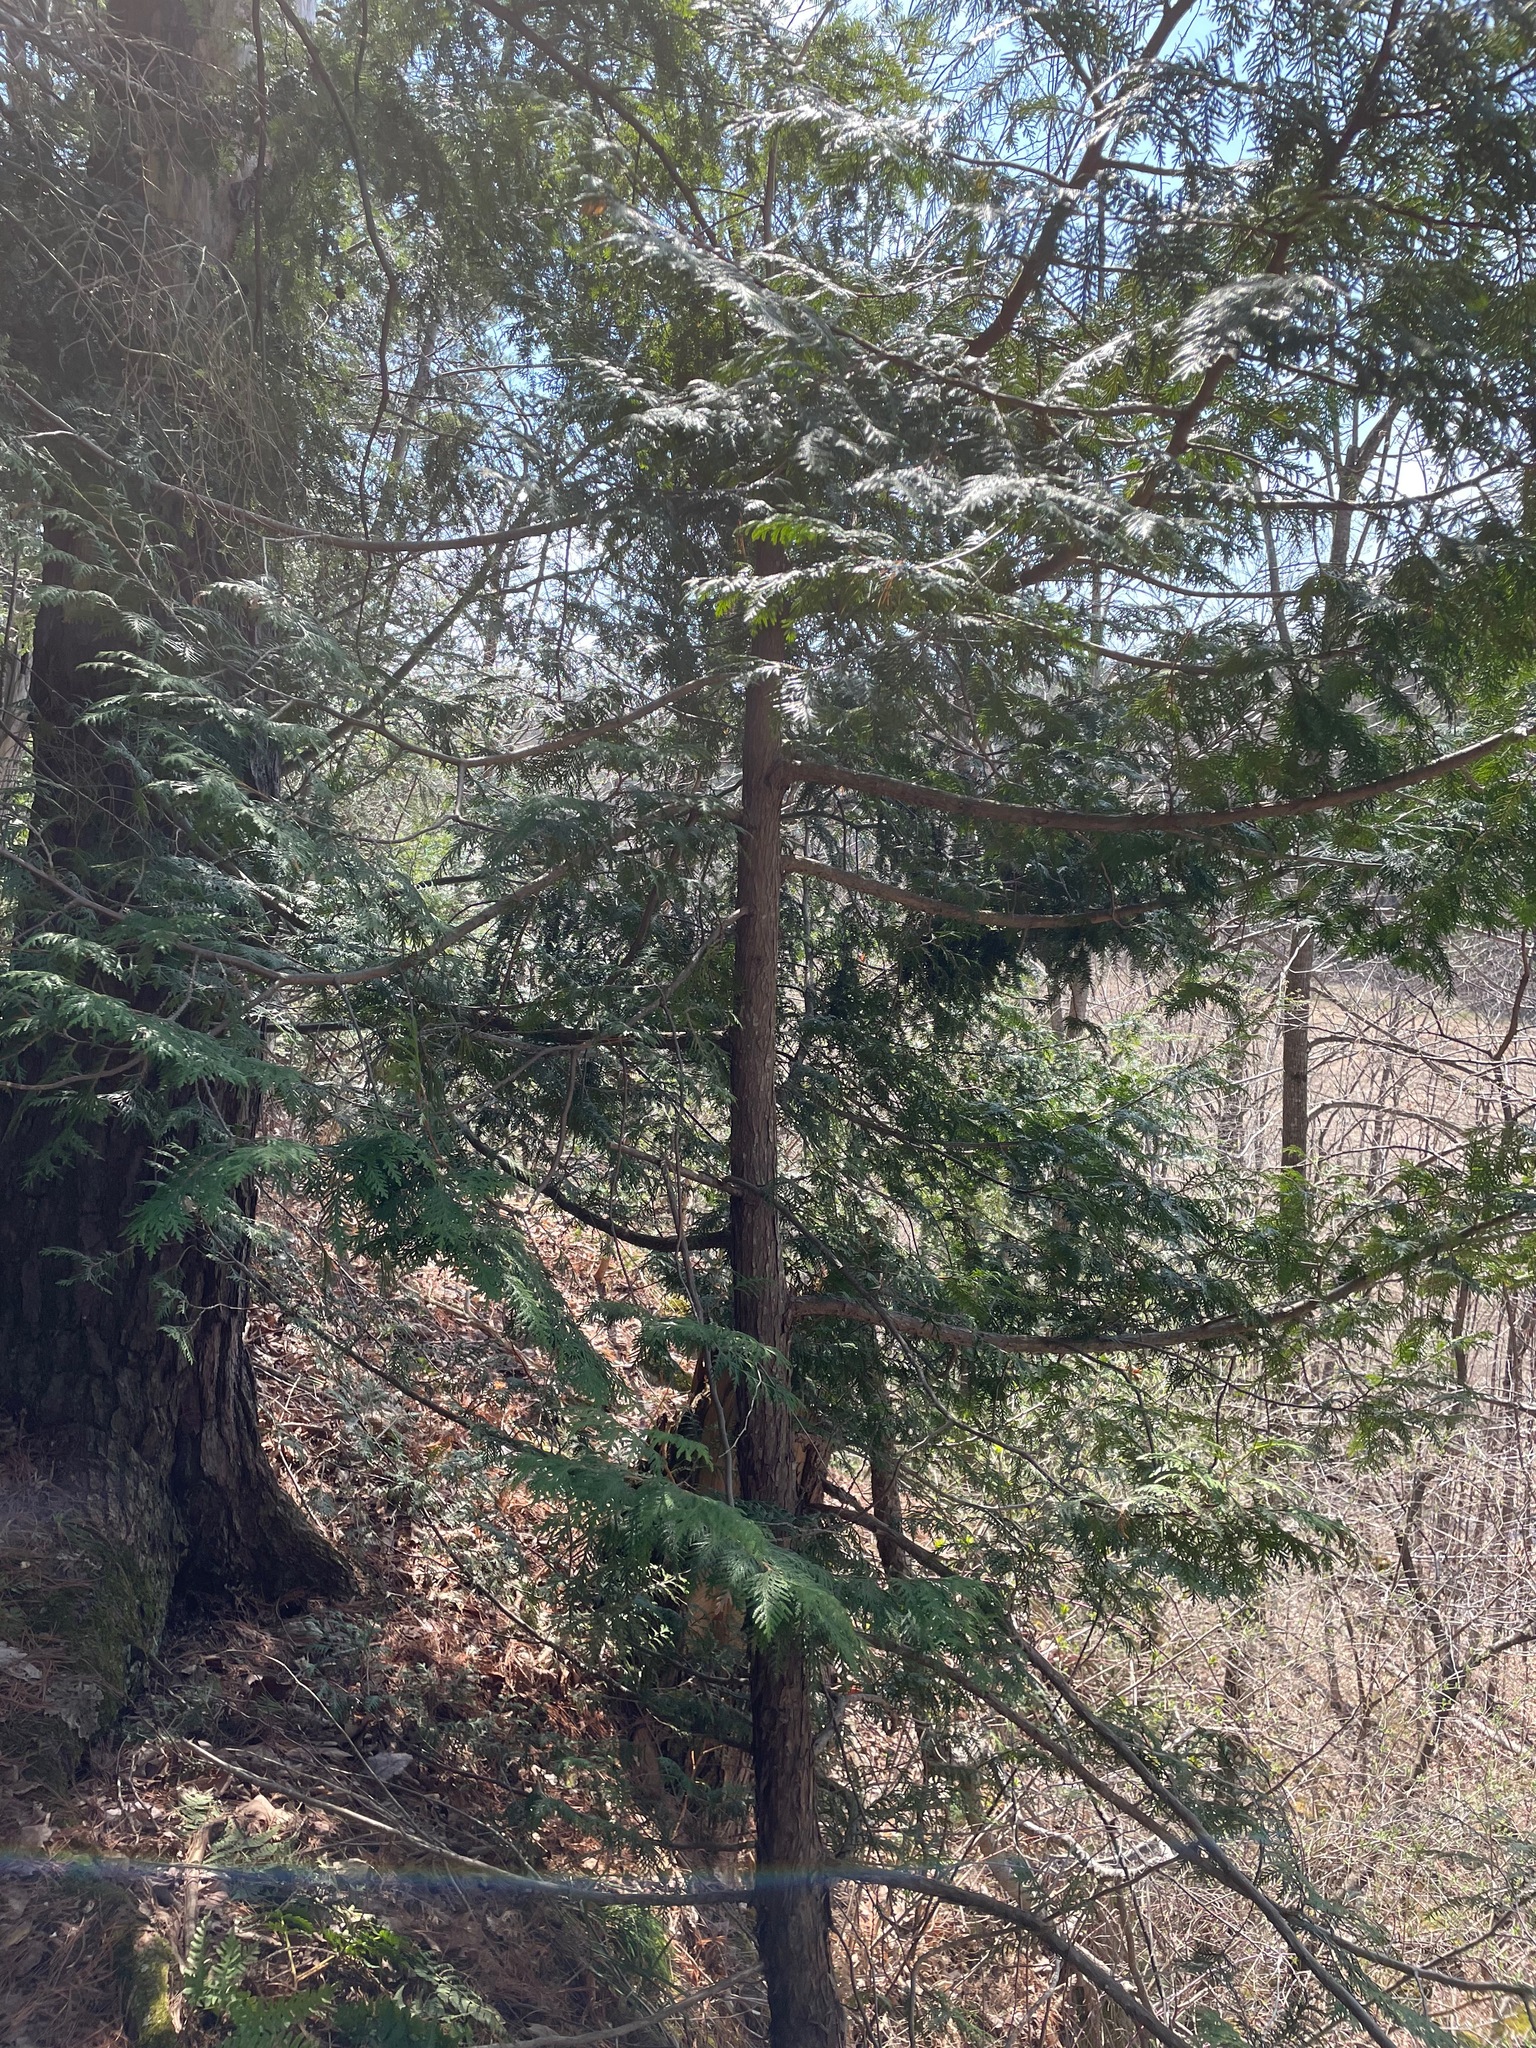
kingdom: Plantae
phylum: Tracheophyta
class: Pinopsida
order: Pinales
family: Cupressaceae
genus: Thuja
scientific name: Thuja occidentalis
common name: Northern white-cedar
